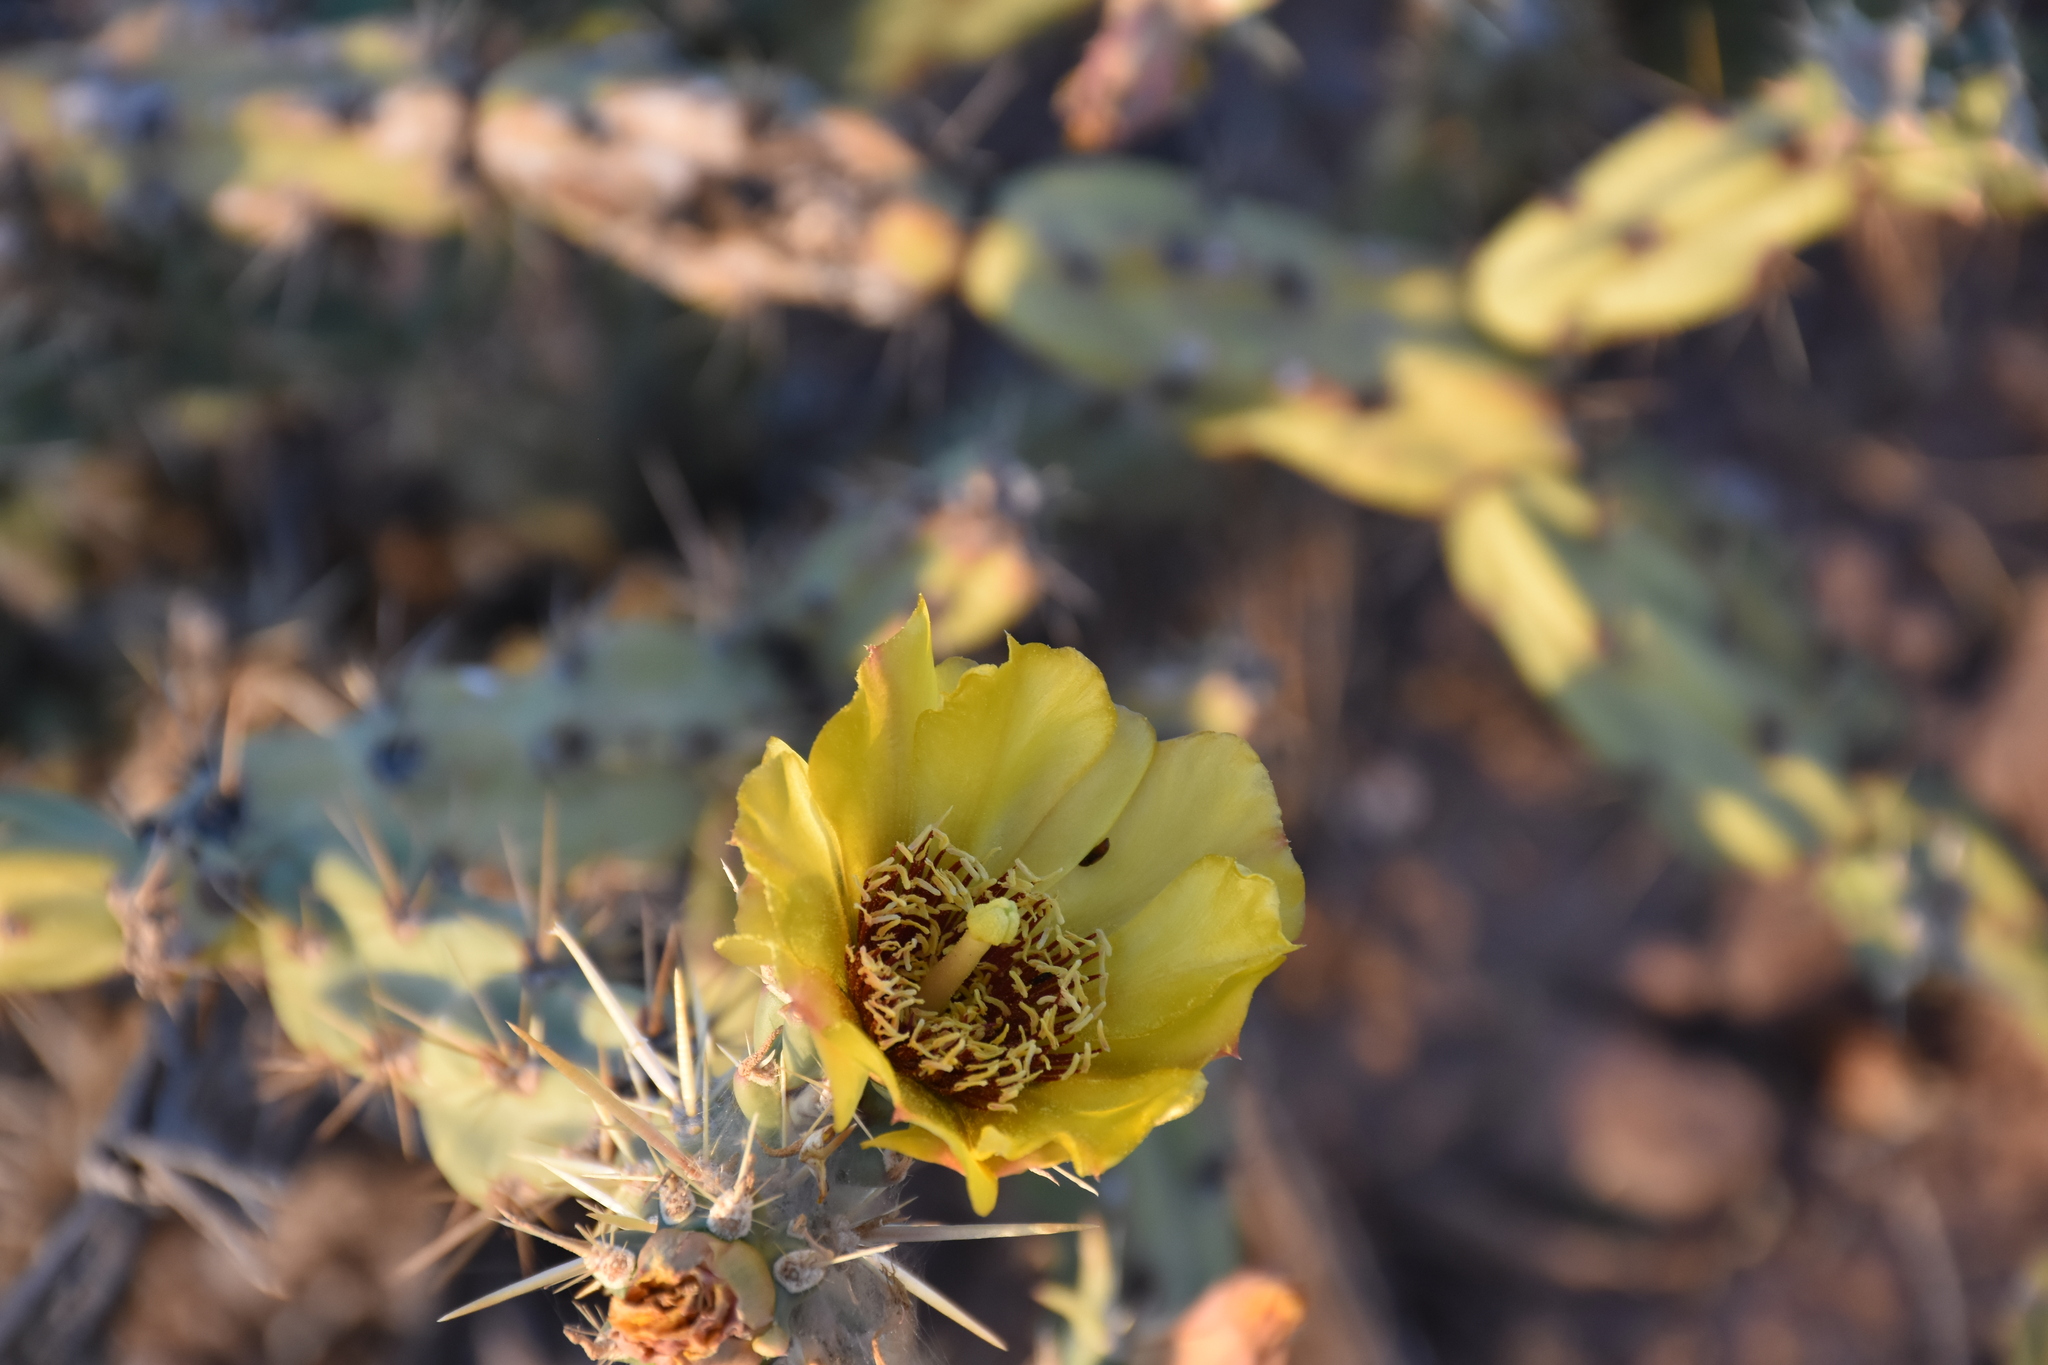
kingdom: Plantae
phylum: Tracheophyta
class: Magnoliopsida
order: Caryophyllales
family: Cactaceae
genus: Cylindropuntia
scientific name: Cylindropuntia acanthocarpa
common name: Buckhorn cholla
